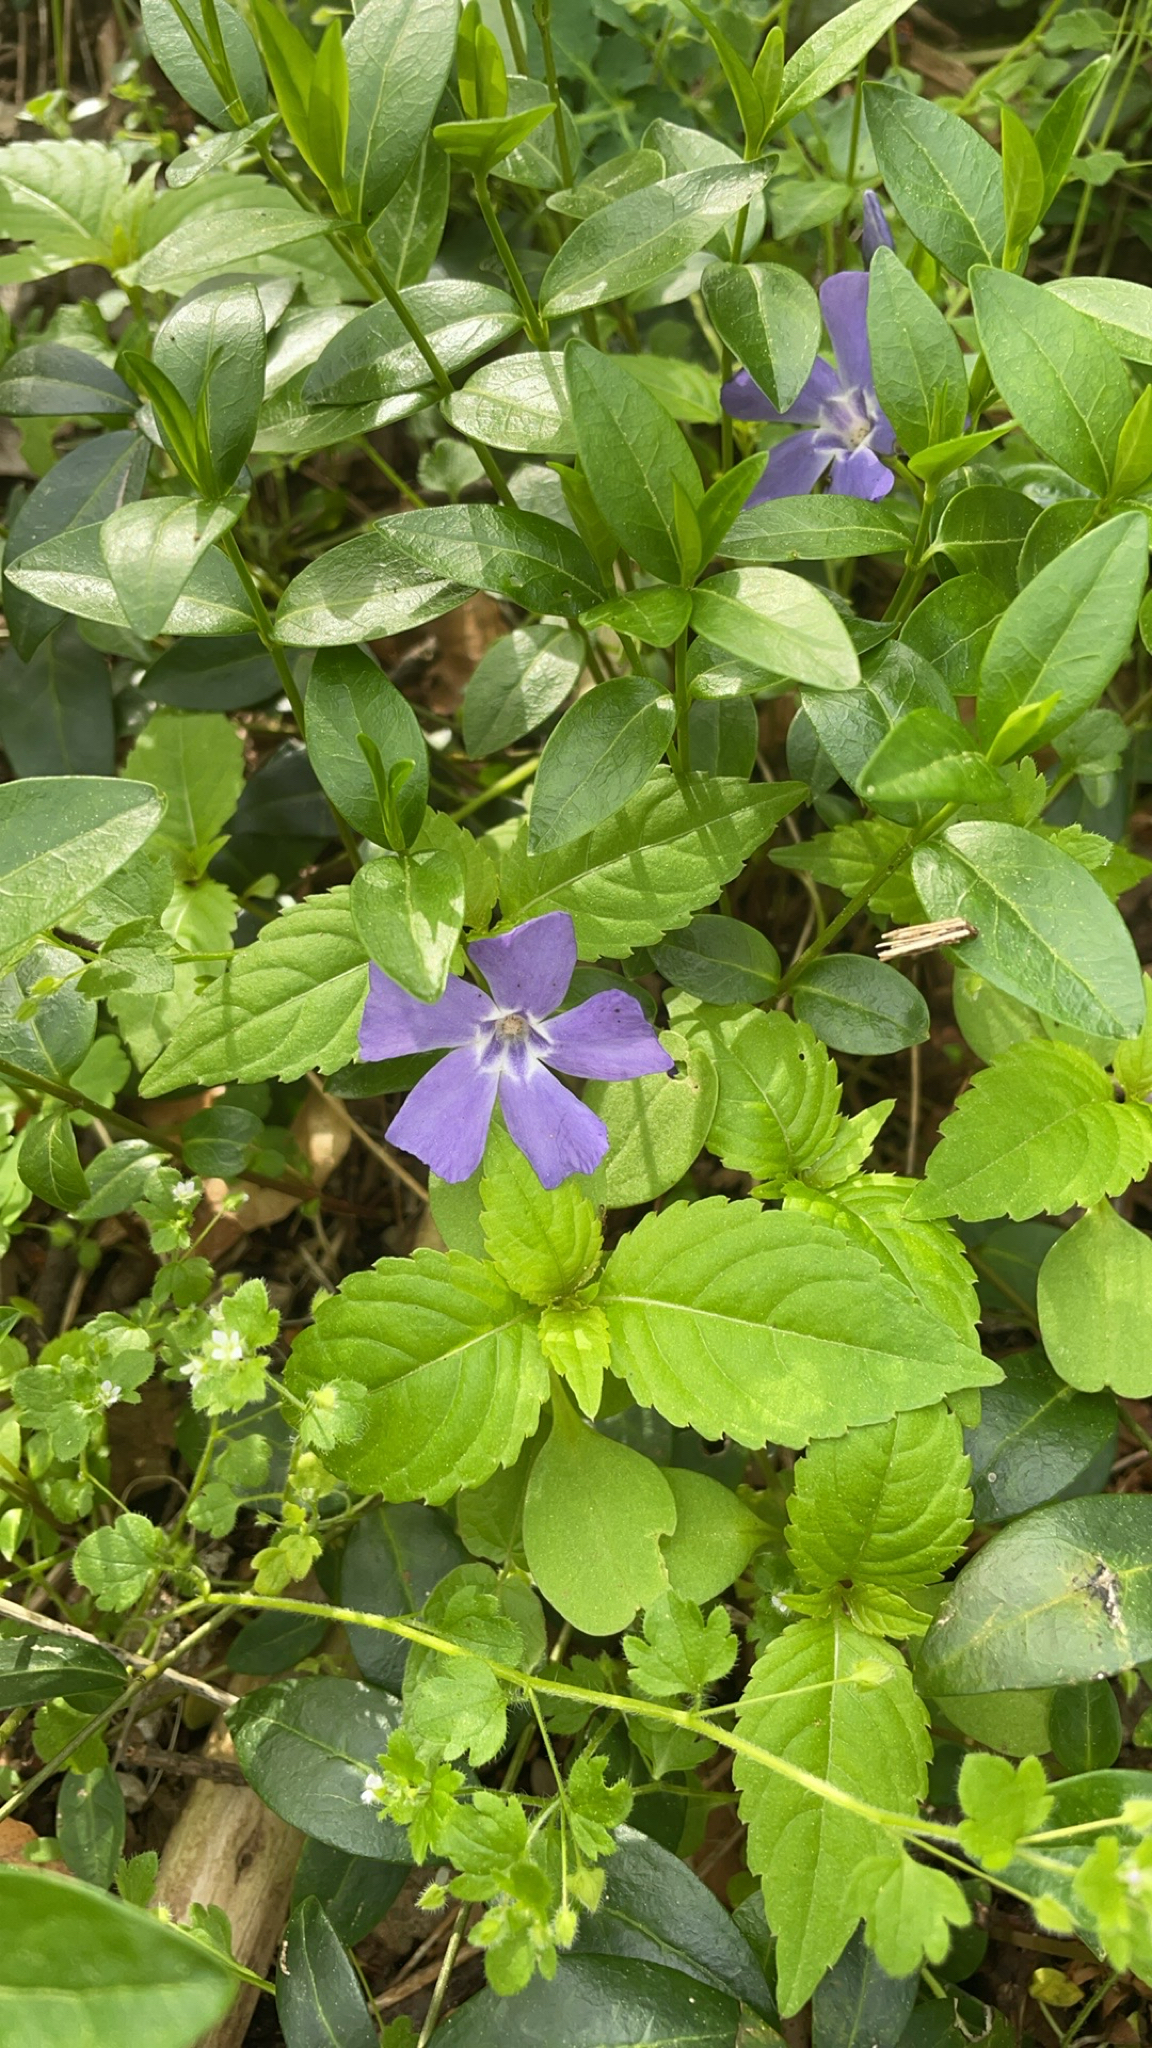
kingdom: Plantae
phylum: Tracheophyta
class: Magnoliopsida
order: Gentianales
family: Apocynaceae
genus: Vinca
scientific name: Vinca minor
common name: Lesser periwinkle
